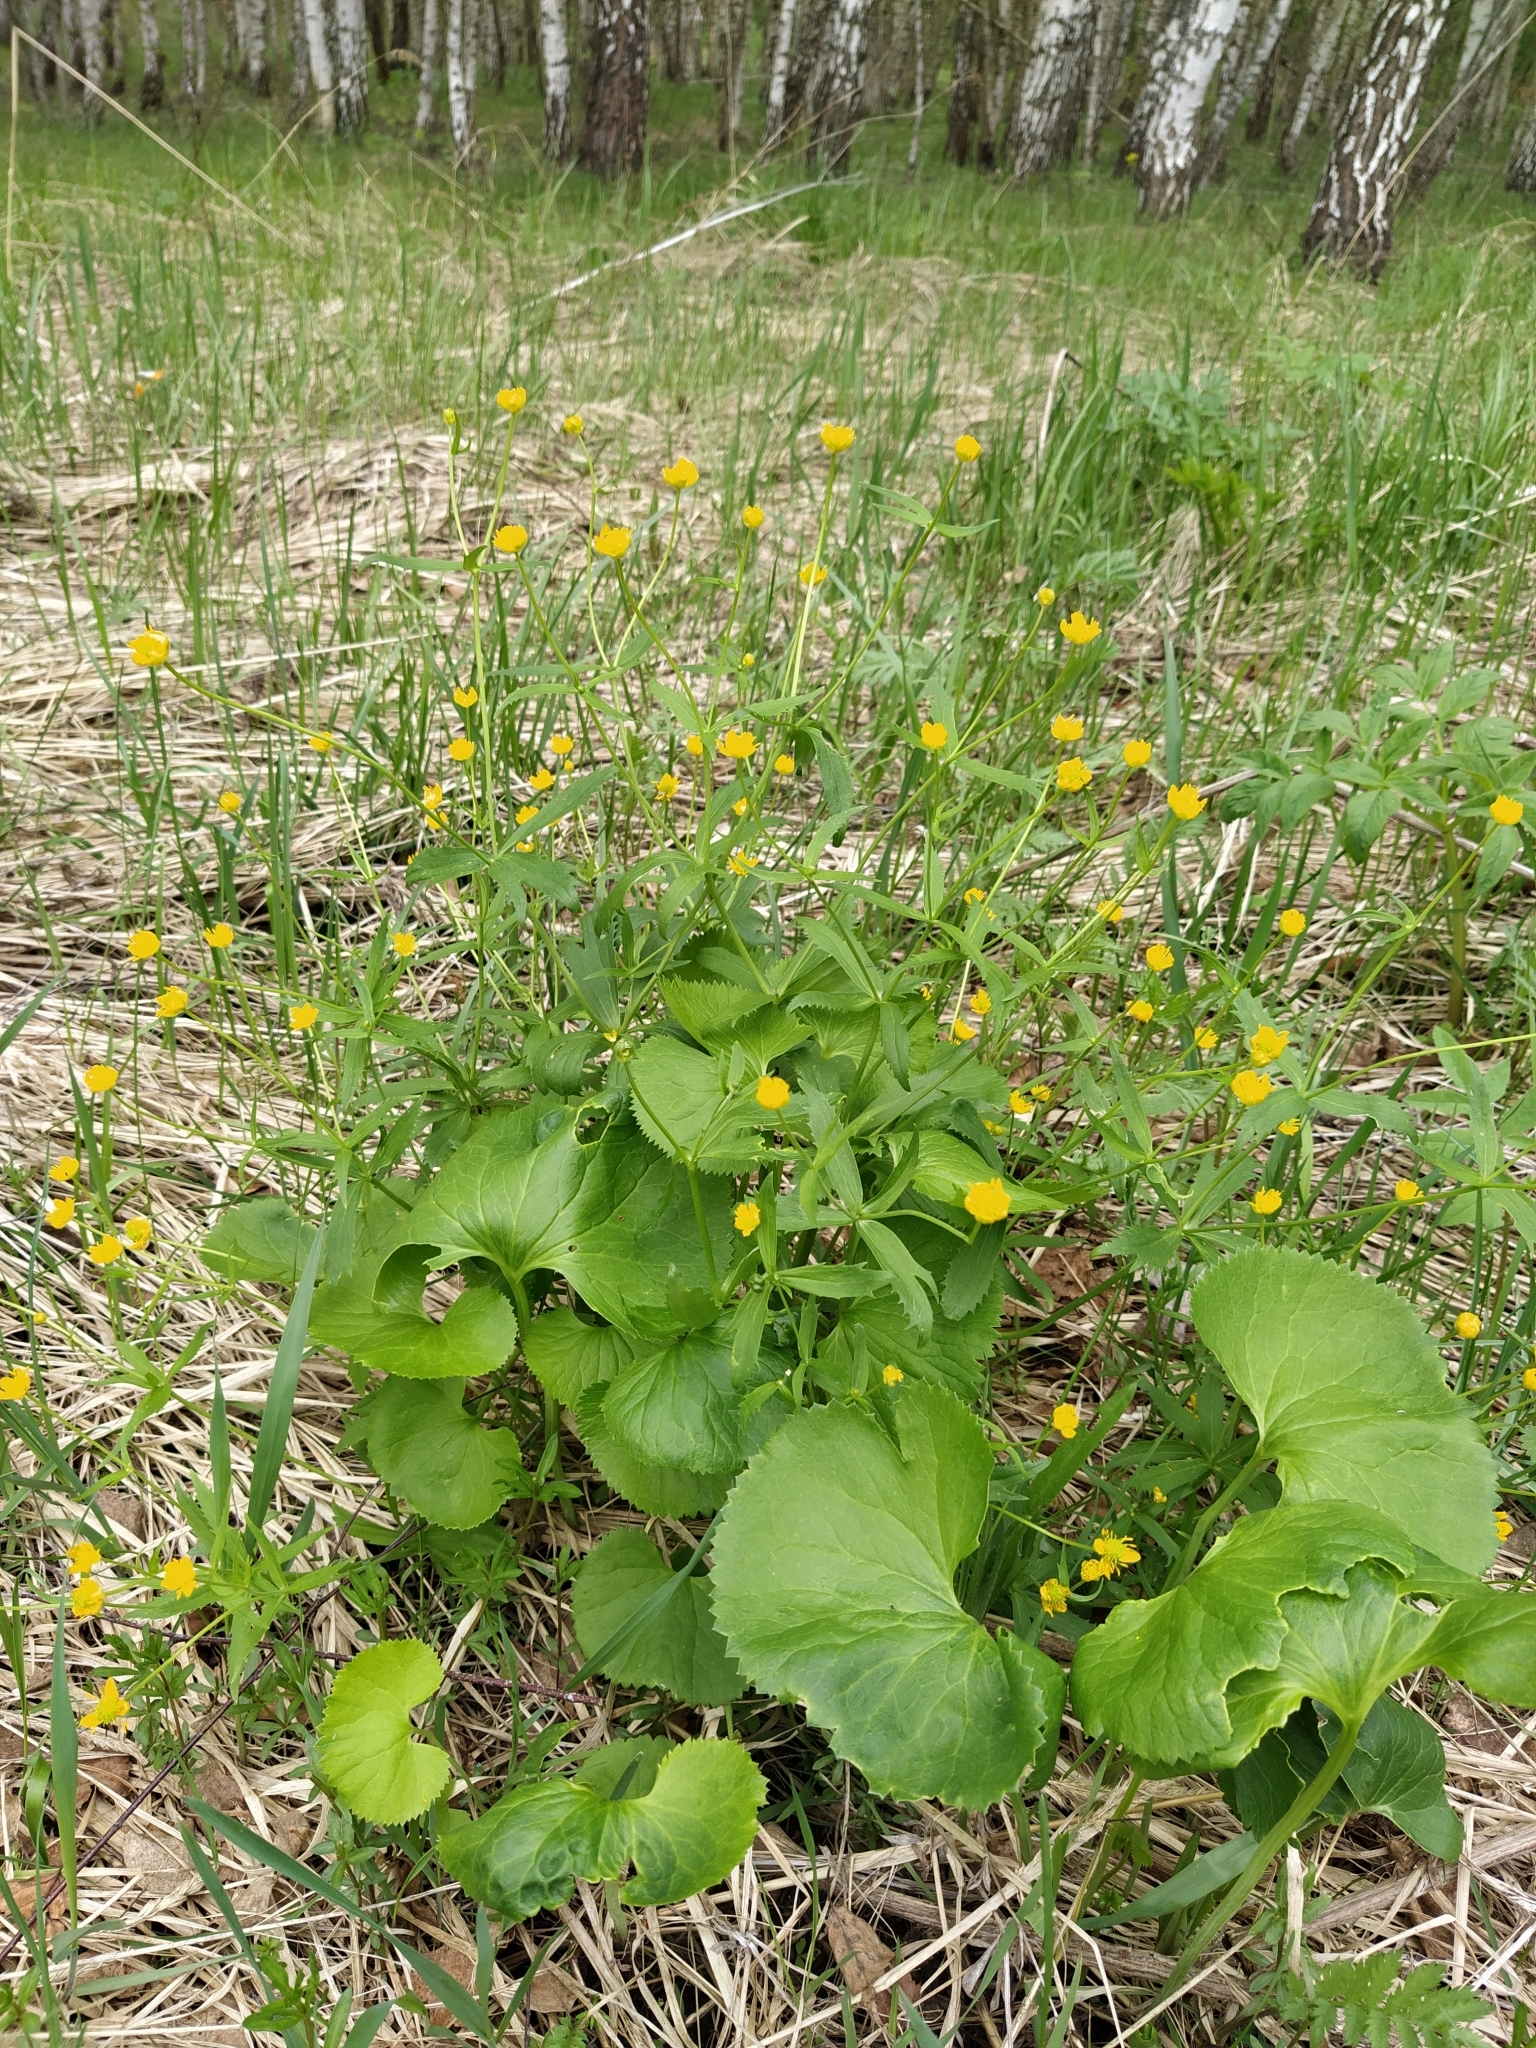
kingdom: Plantae
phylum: Tracheophyta
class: Magnoliopsida
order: Ranunculales
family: Ranunculaceae
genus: Ranunculus
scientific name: Ranunculus cassubicus
